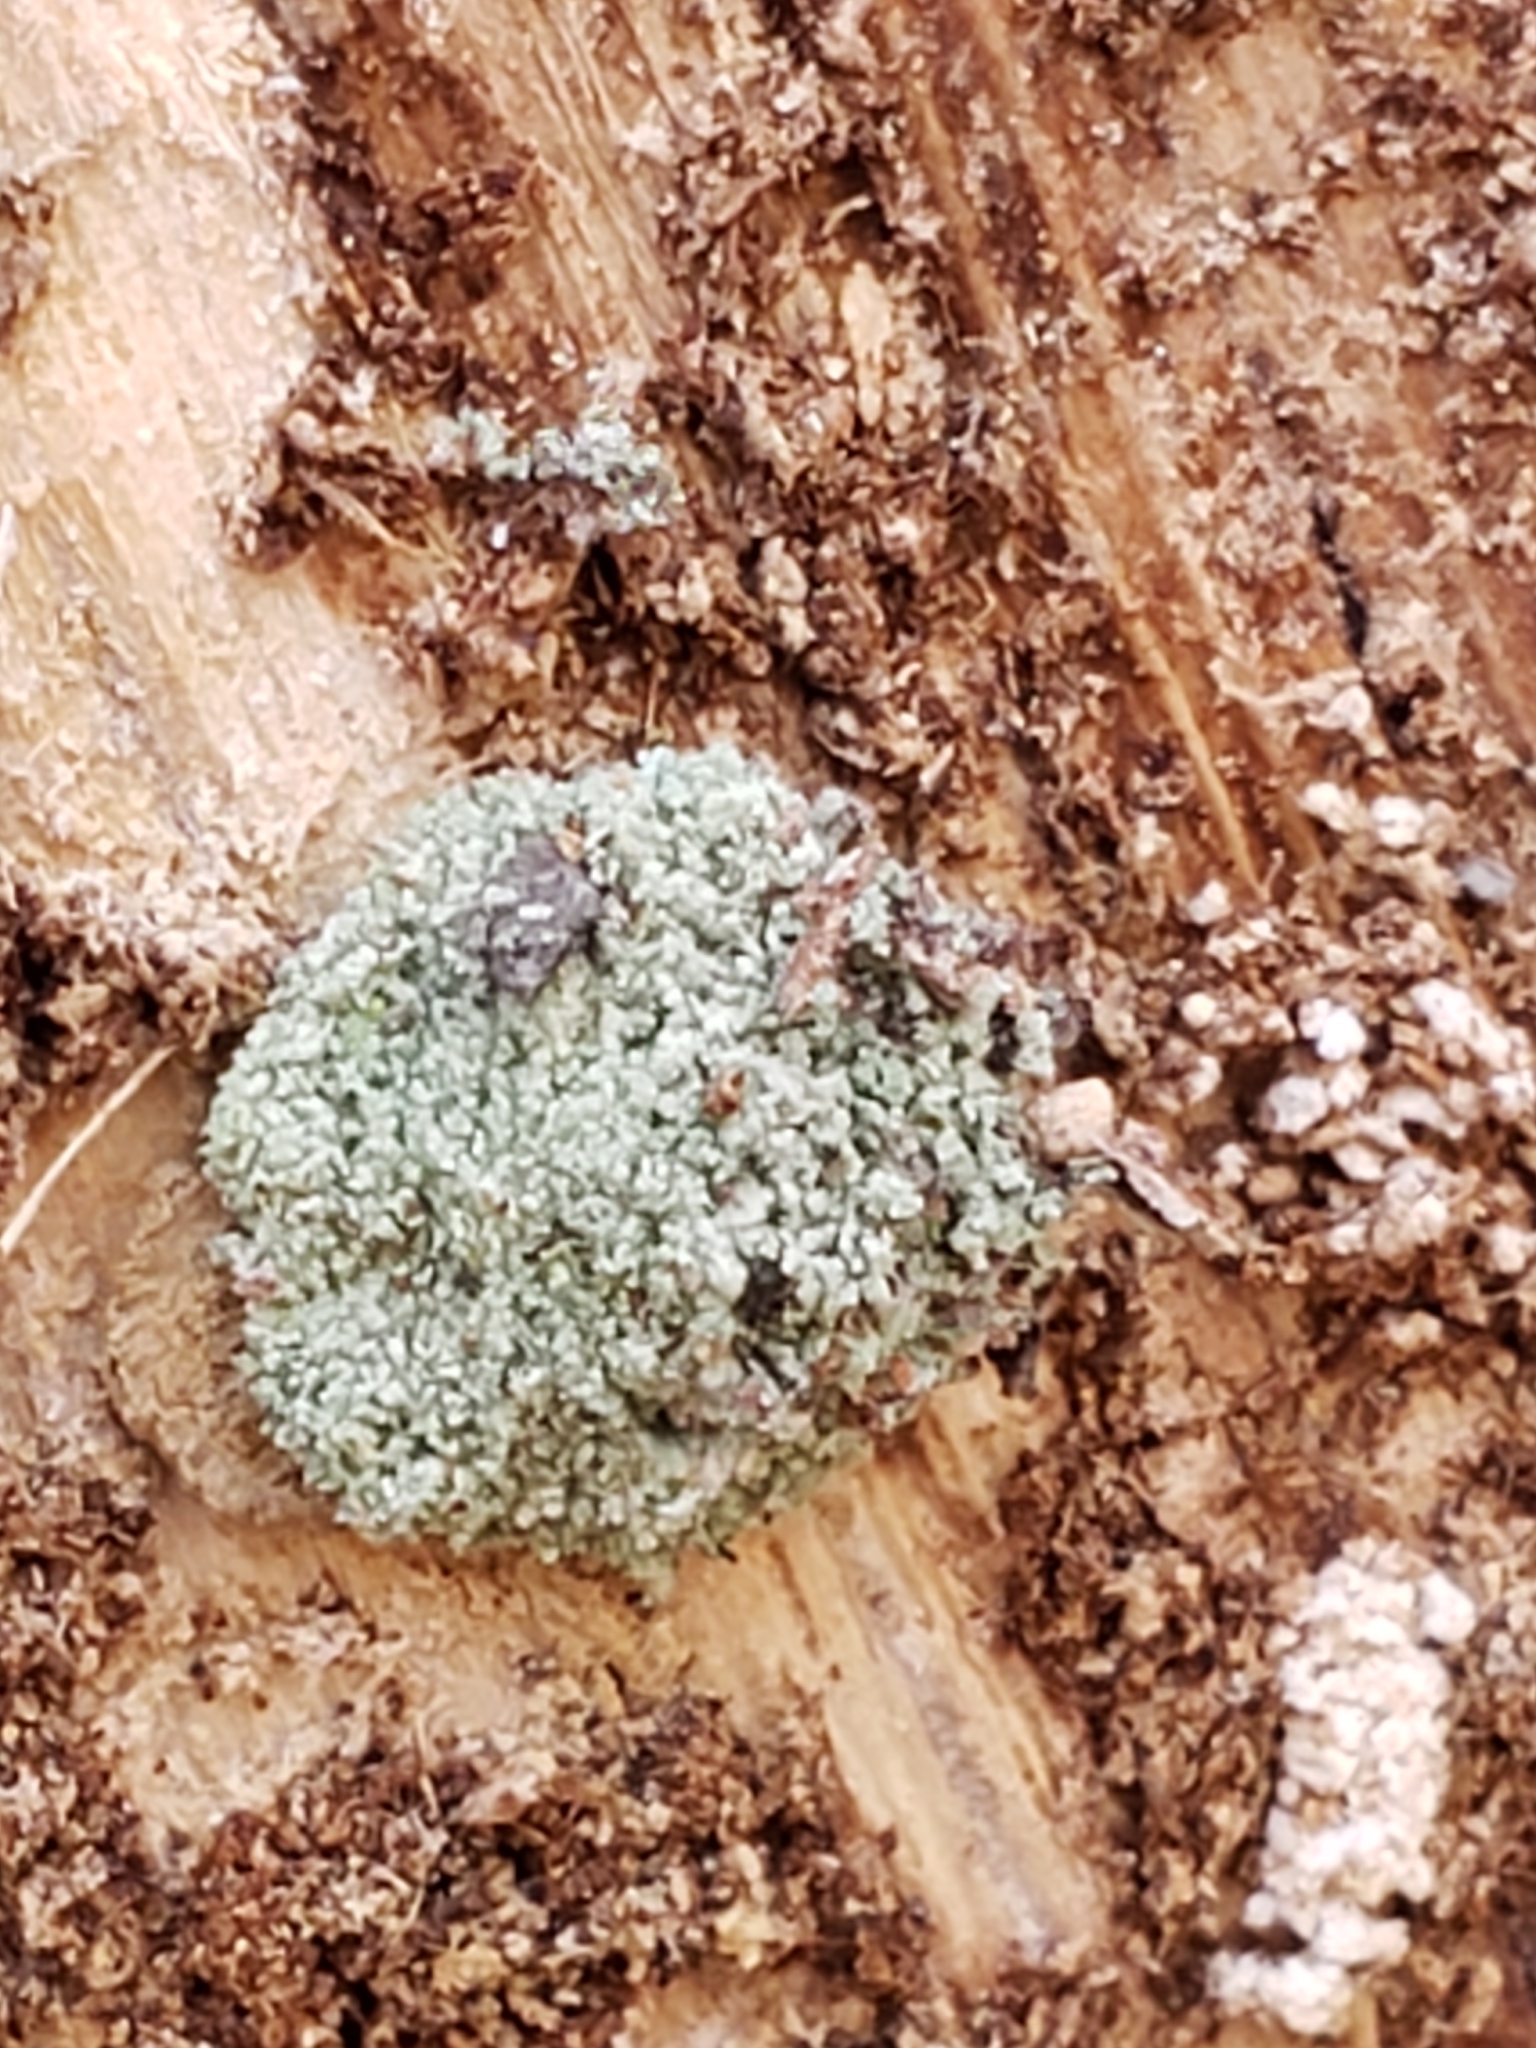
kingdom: Animalia
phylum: Arthropoda
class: Insecta
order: Neuroptera
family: Chrysopidae
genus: Leucochrysa
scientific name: Leucochrysa pavida
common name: Lichen-carrying green lacewing
